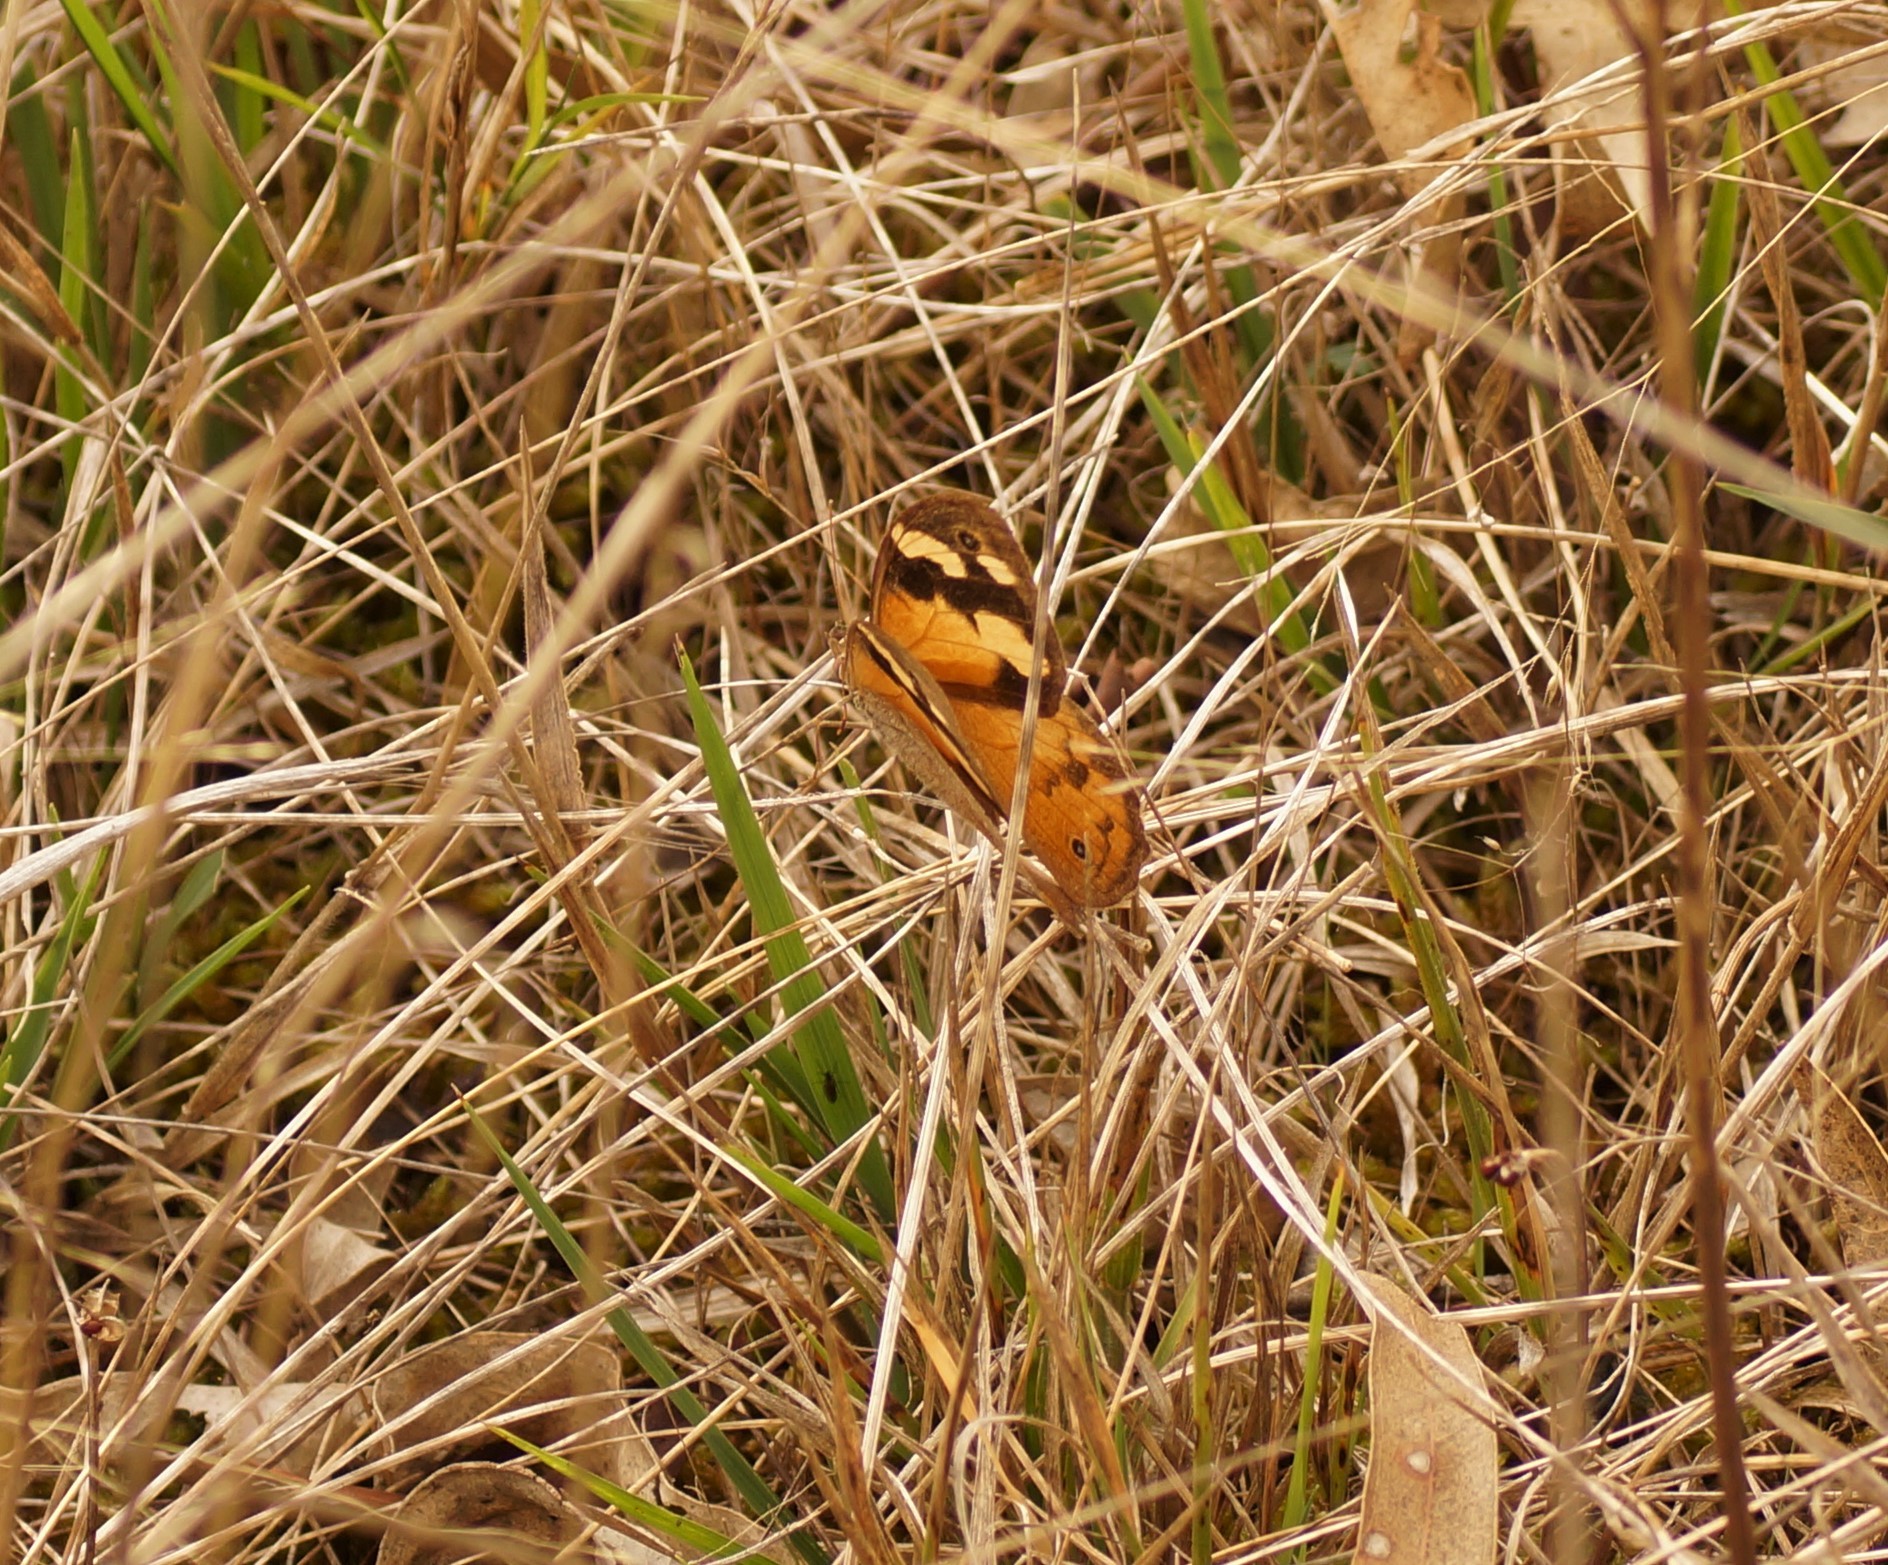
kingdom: Animalia
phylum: Arthropoda
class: Insecta
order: Lepidoptera
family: Nymphalidae
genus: Heteronympha
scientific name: Heteronympha merope
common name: Common brown
